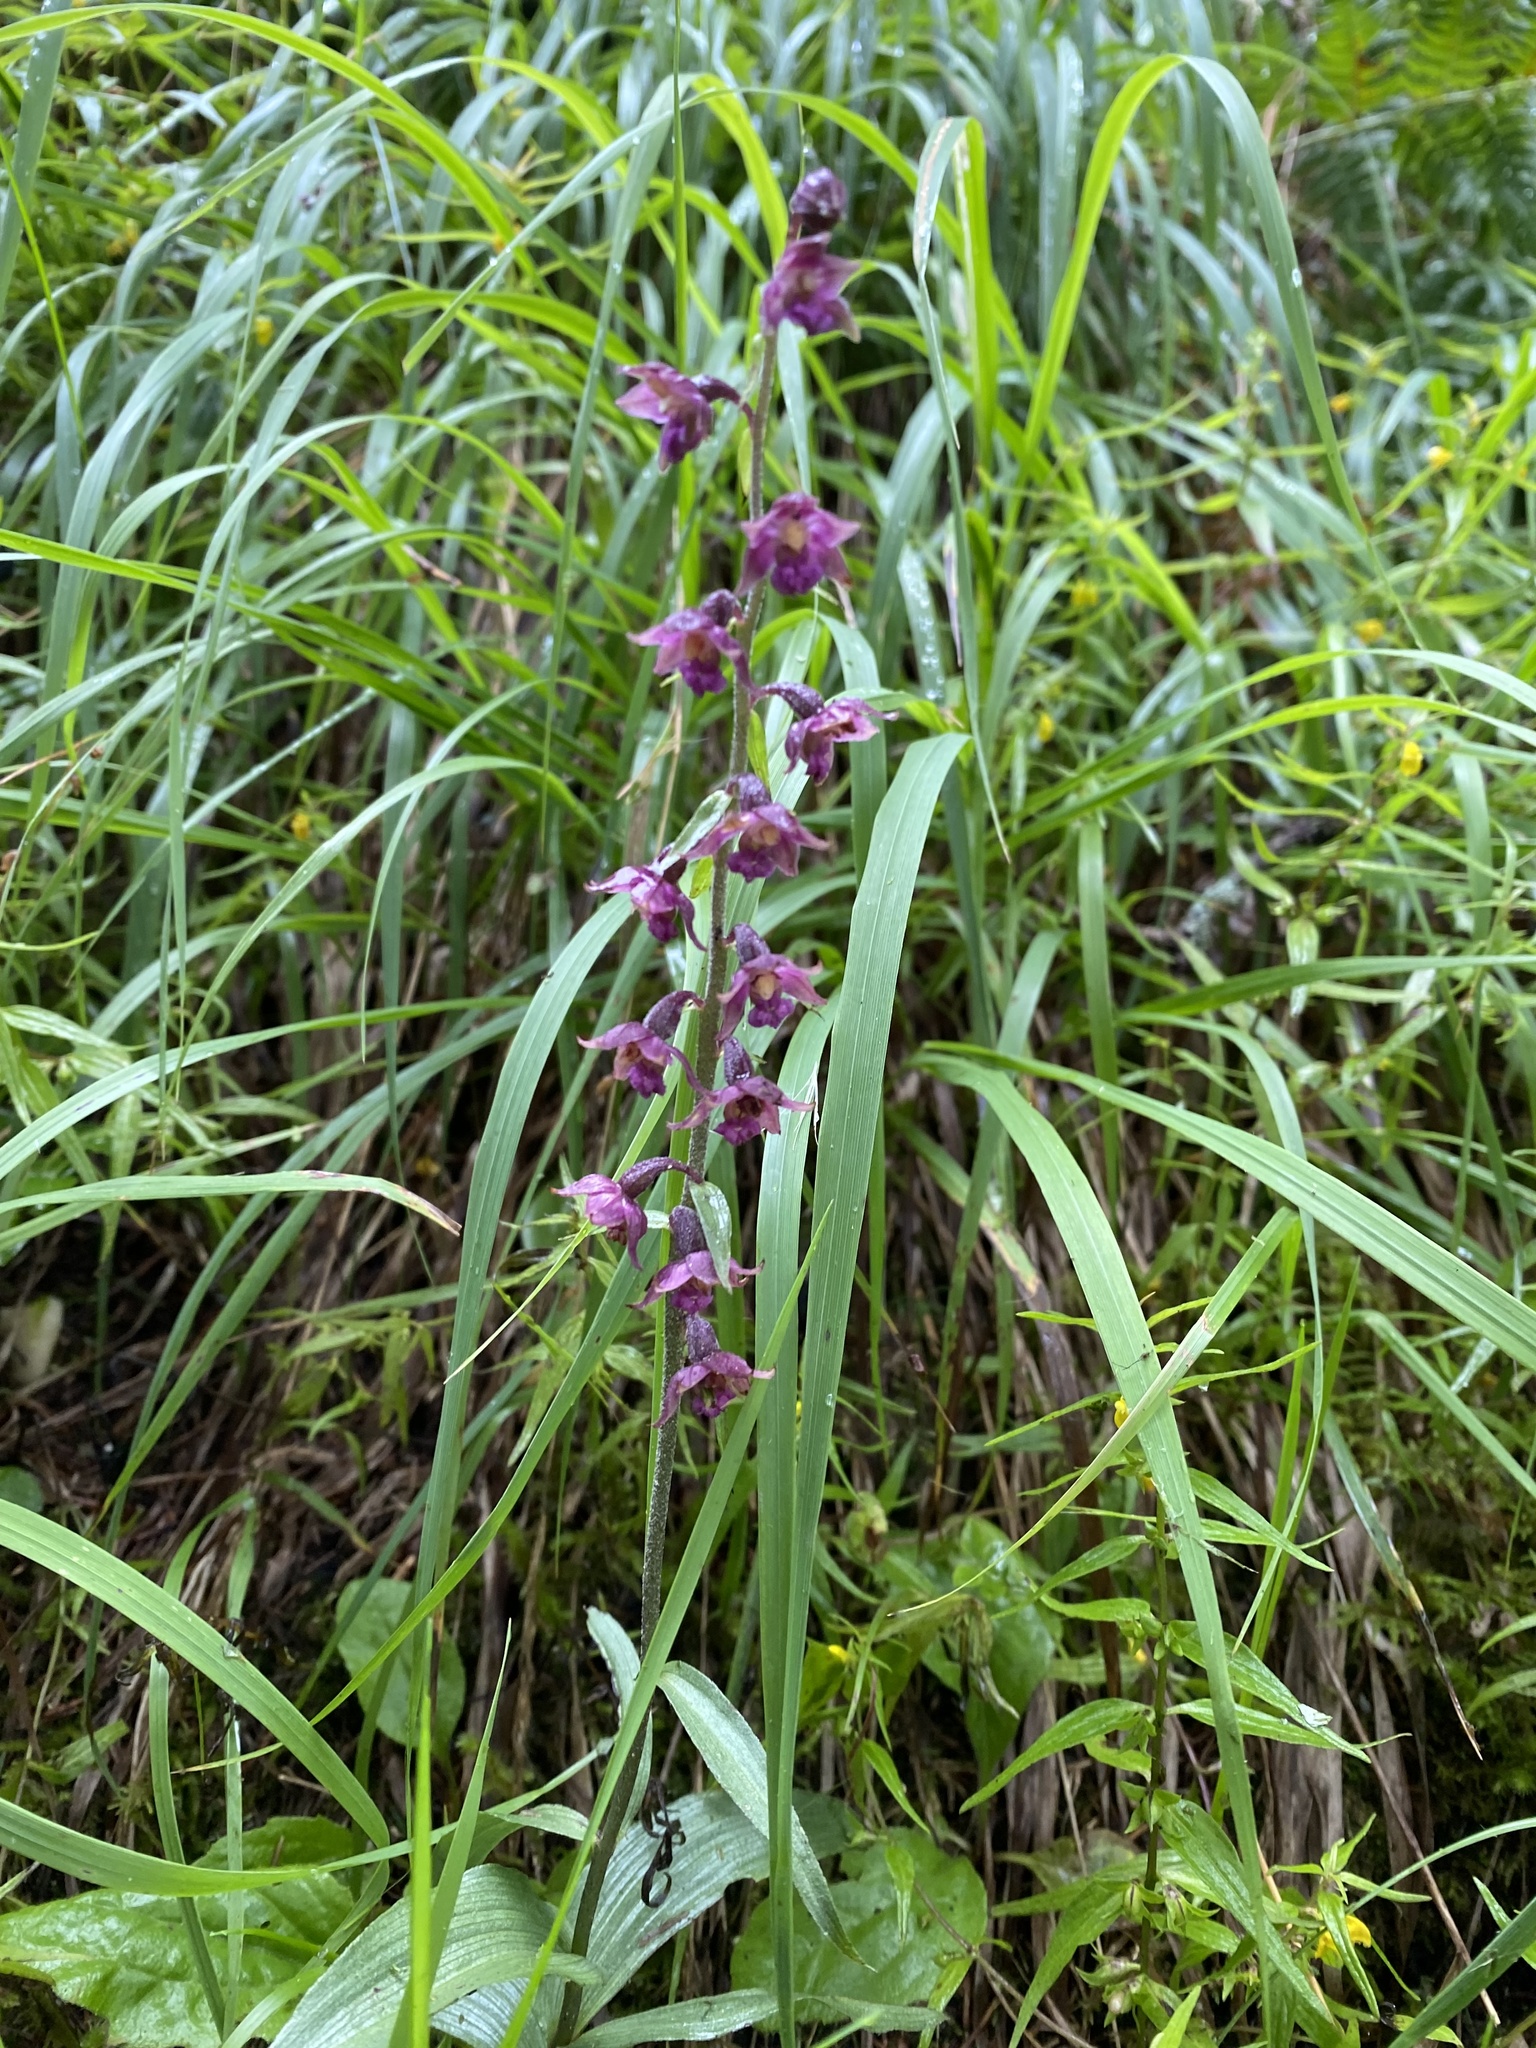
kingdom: Plantae
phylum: Tracheophyta
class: Liliopsida
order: Asparagales
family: Orchidaceae
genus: Epipactis
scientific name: Epipactis atrorubens
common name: Dark-red helleborine
